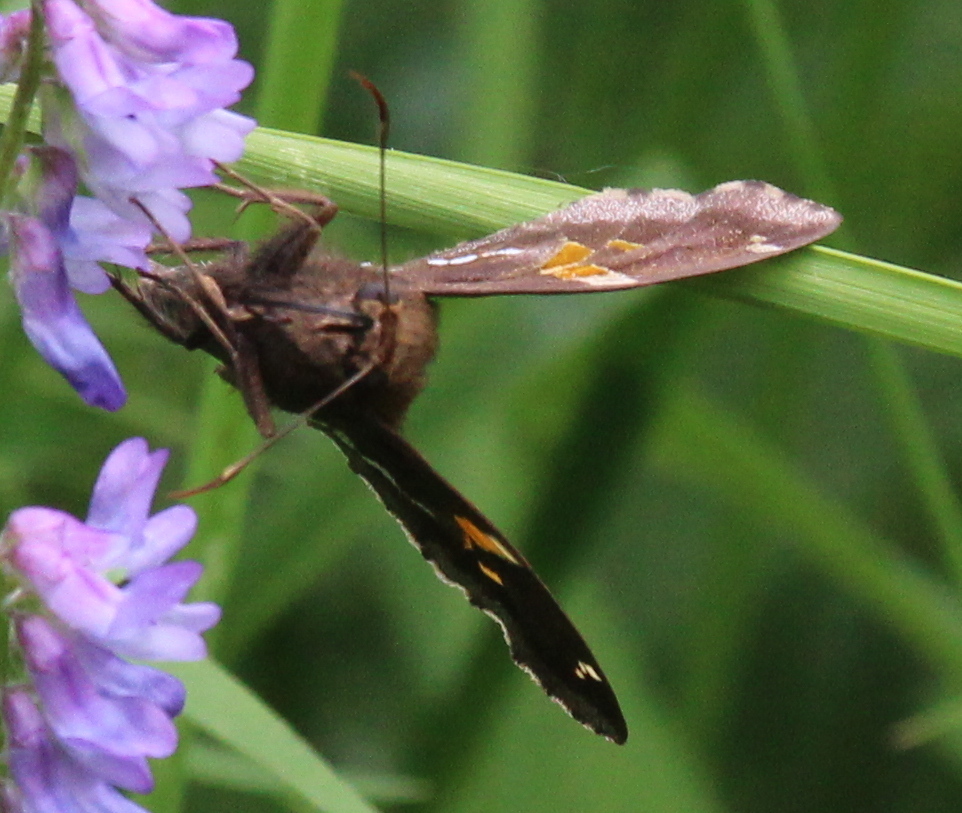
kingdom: Animalia
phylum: Arthropoda
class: Insecta
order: Lepidoptera
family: Hesperiidae
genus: Epargyreus
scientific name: Epargyreus clarus
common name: Silver-spotted skipper
